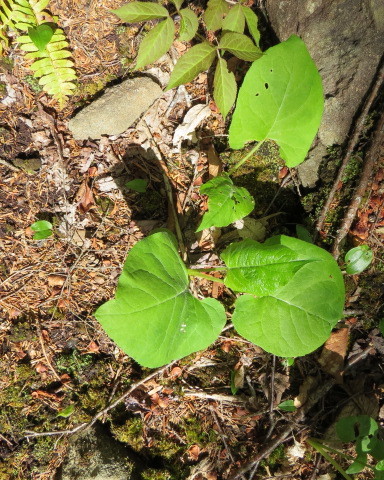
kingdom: Plantae
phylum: Tracheophyta
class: Magnoliopsida
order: Asterales
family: Asteraceae
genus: Eurybia
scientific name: Eurybia macrophylla
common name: Big-leaved aster
